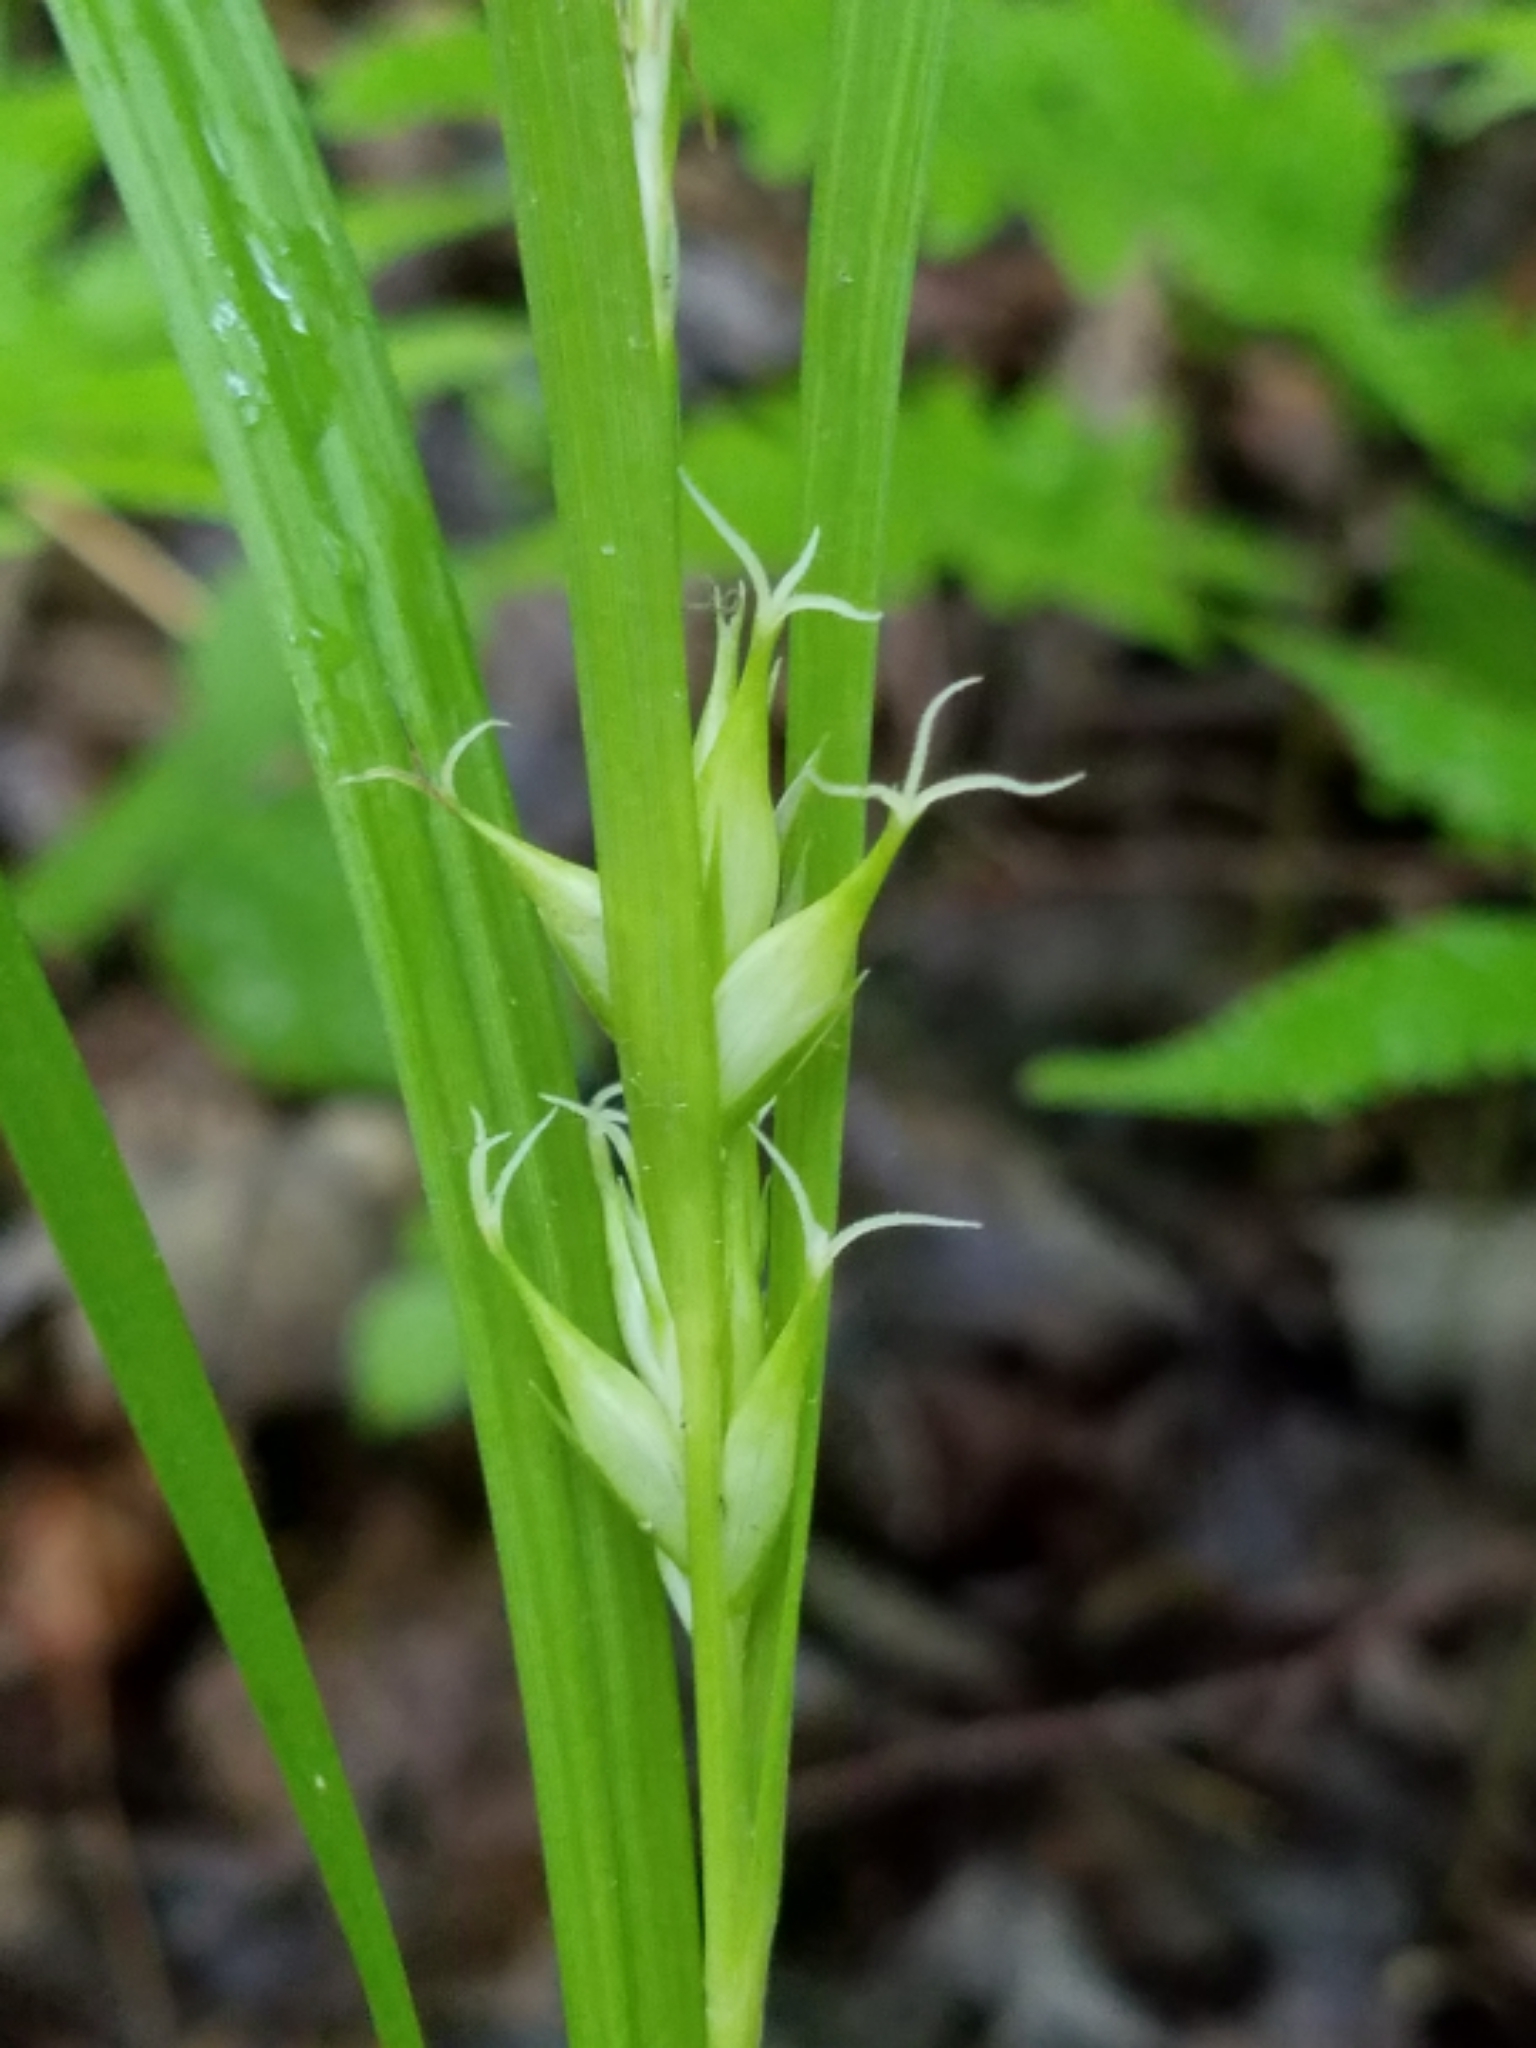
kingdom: Plantae
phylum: Tracheophyta
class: Liliopsida
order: Poales
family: Cyperaceae
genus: Carex
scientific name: Carex intumescens
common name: Greater bladder sedge
